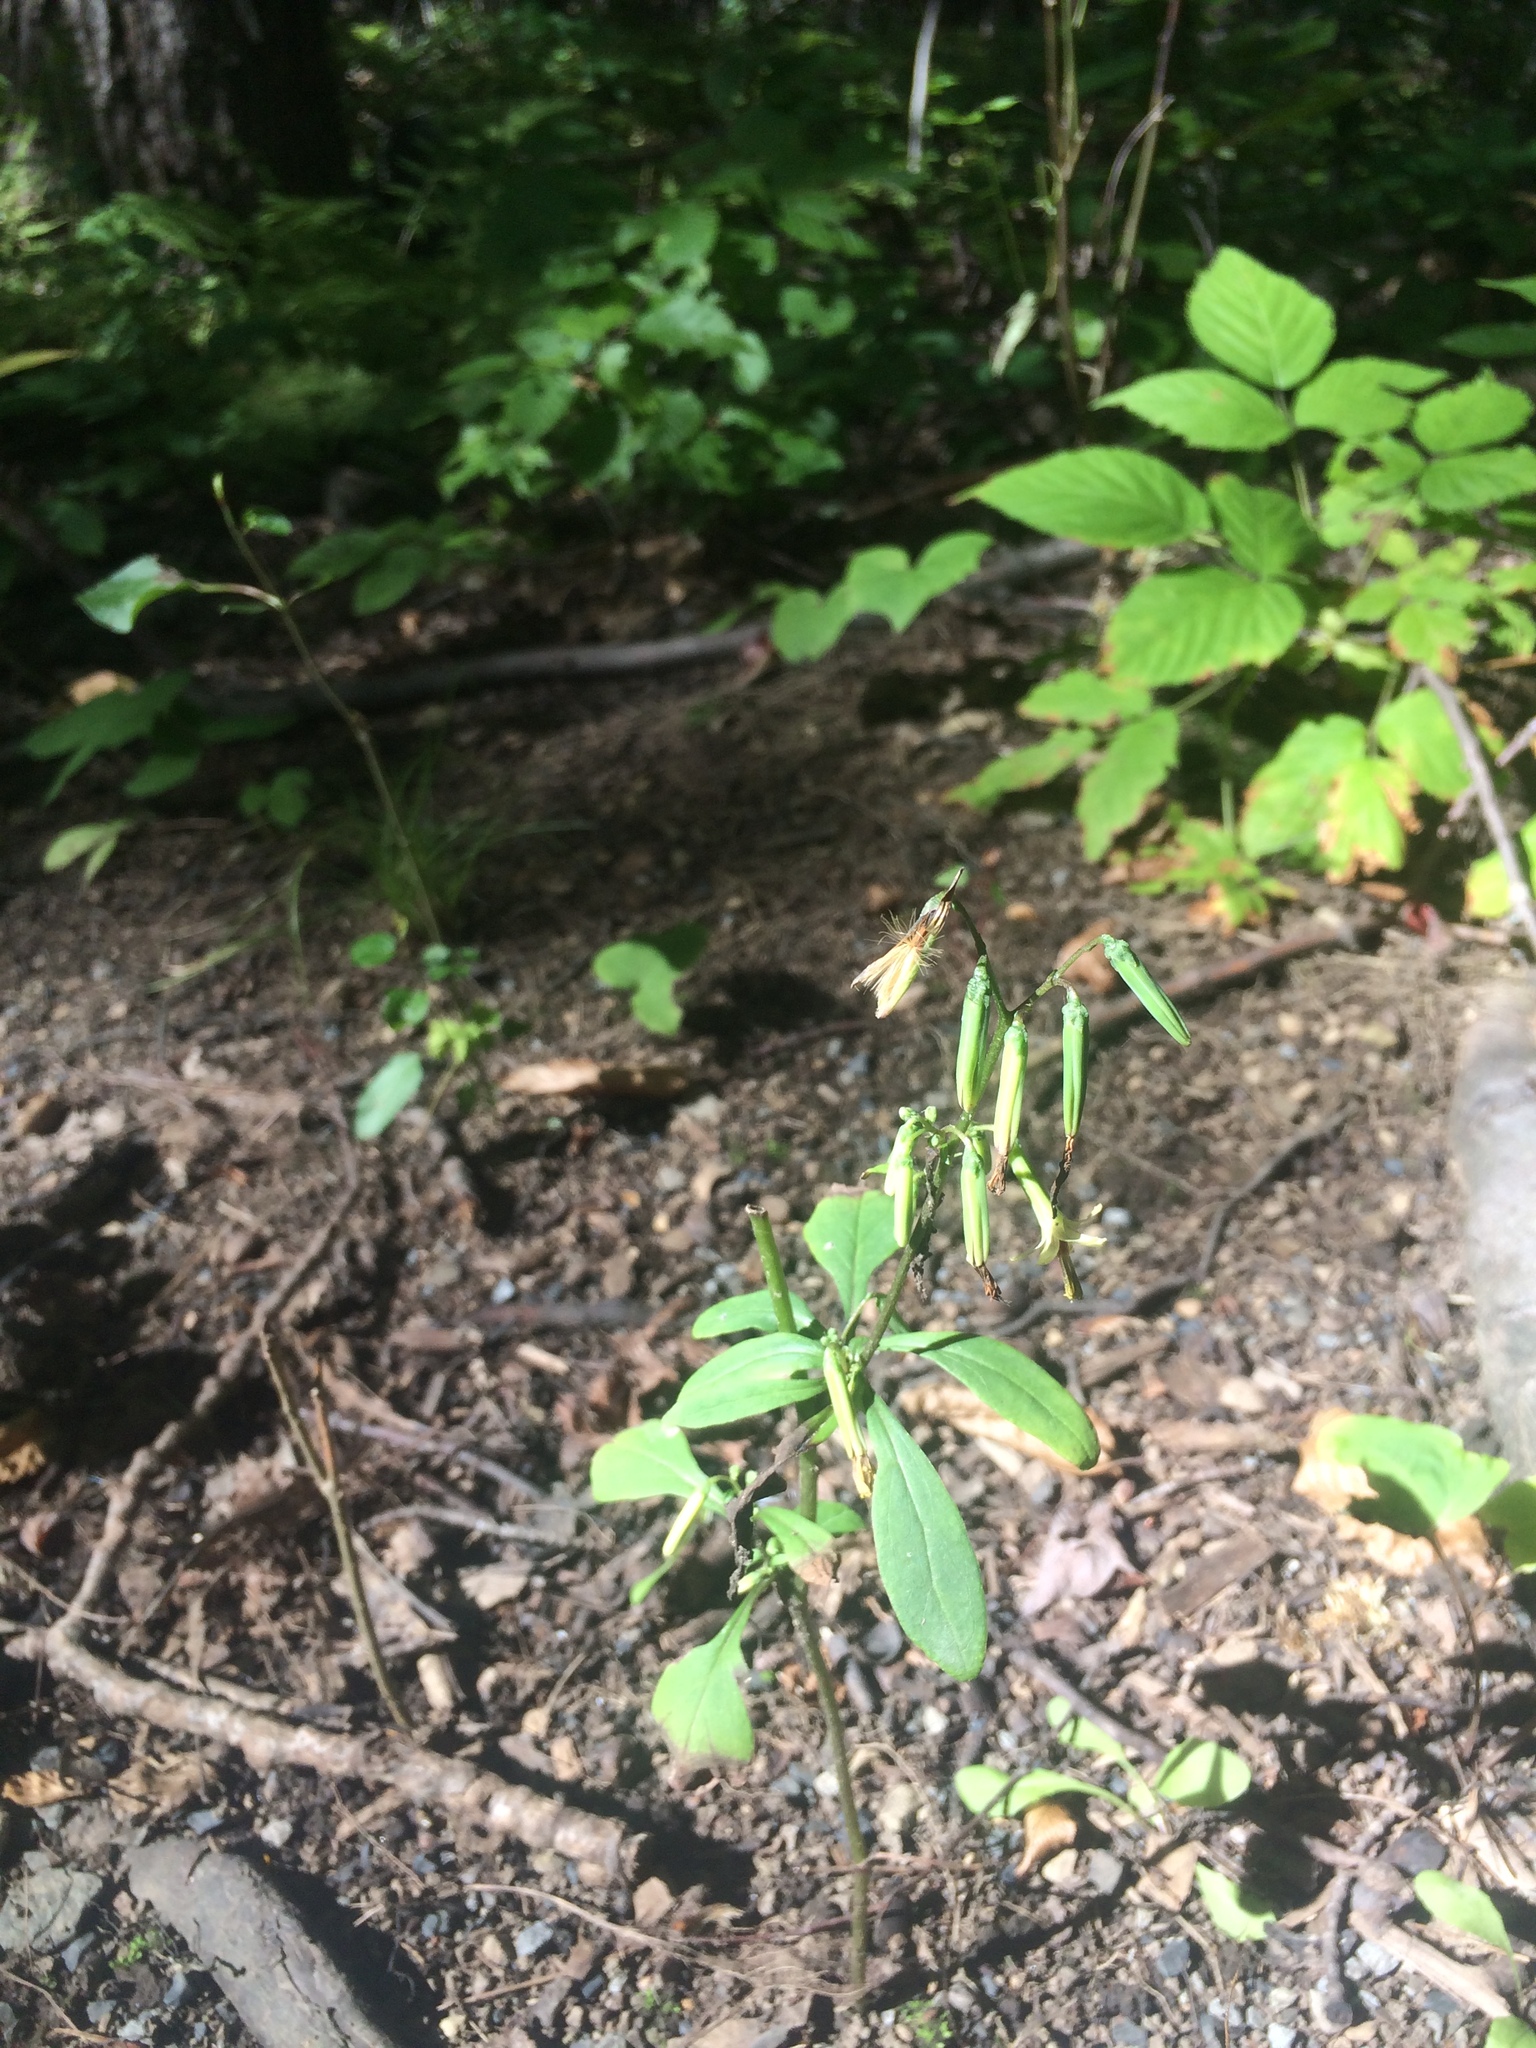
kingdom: Plantae
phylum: Tracheophyta
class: Magnoliopsida
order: Asterales
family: Asteraceae
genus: Nabalus
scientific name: Nabalus altissima
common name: Tall rattlesnakeroot
